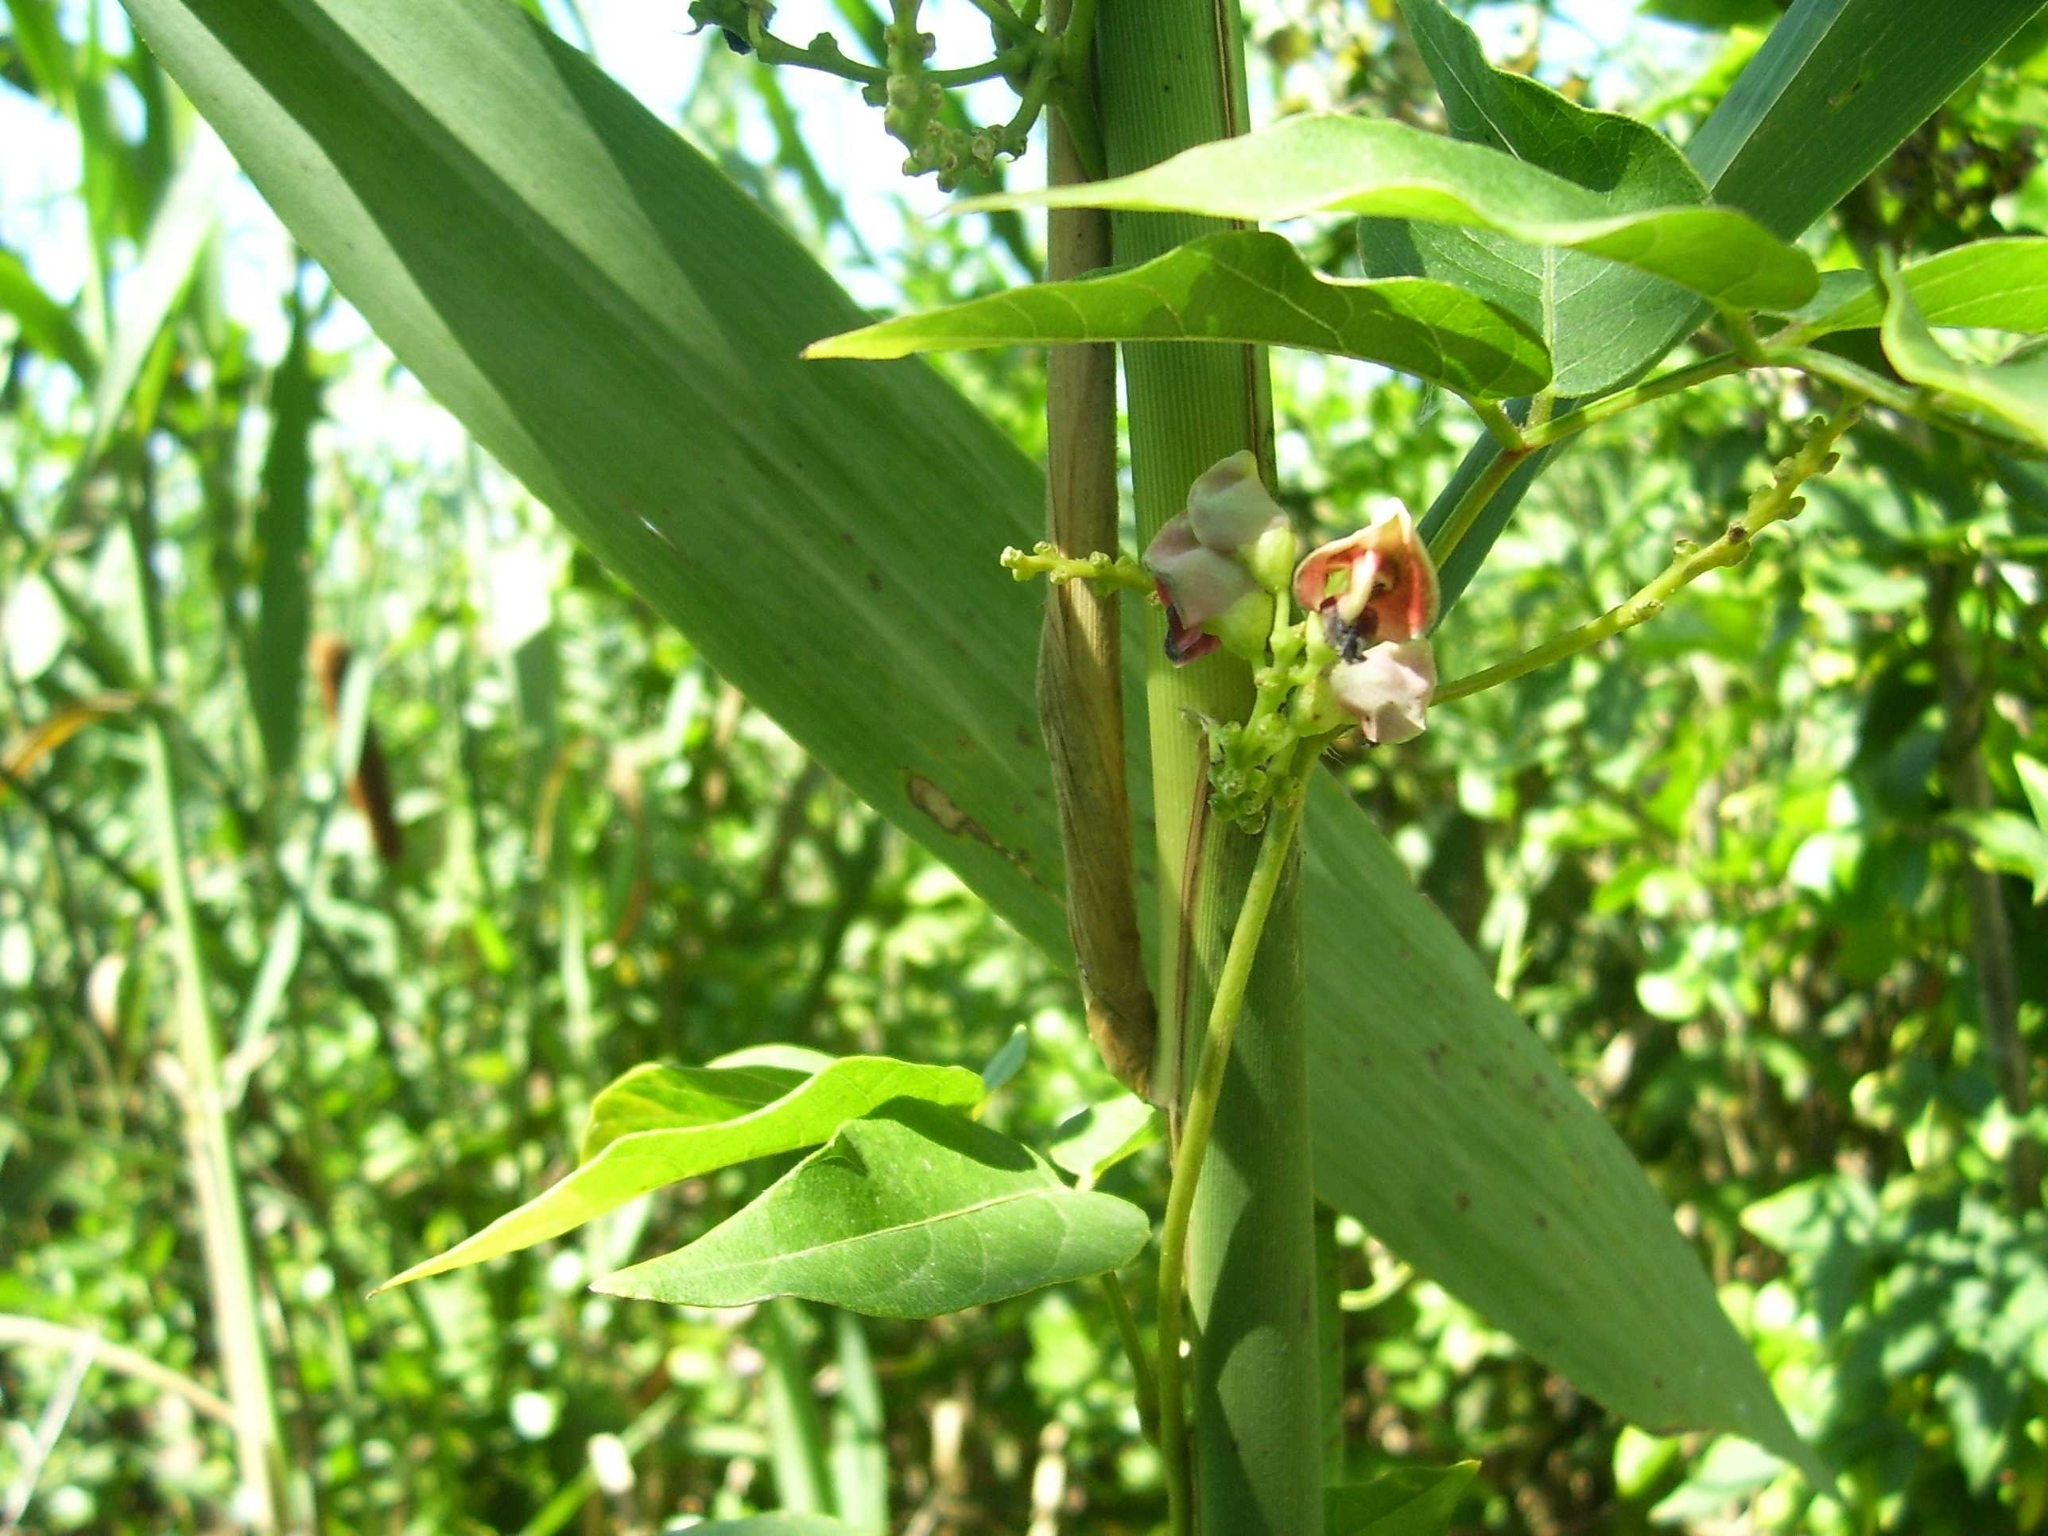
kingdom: Plantae
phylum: Tracheophyta
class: Magnoliopsida
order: Fabales
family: Fabaceae
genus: Apios
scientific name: Apios americana
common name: American potato-bean
